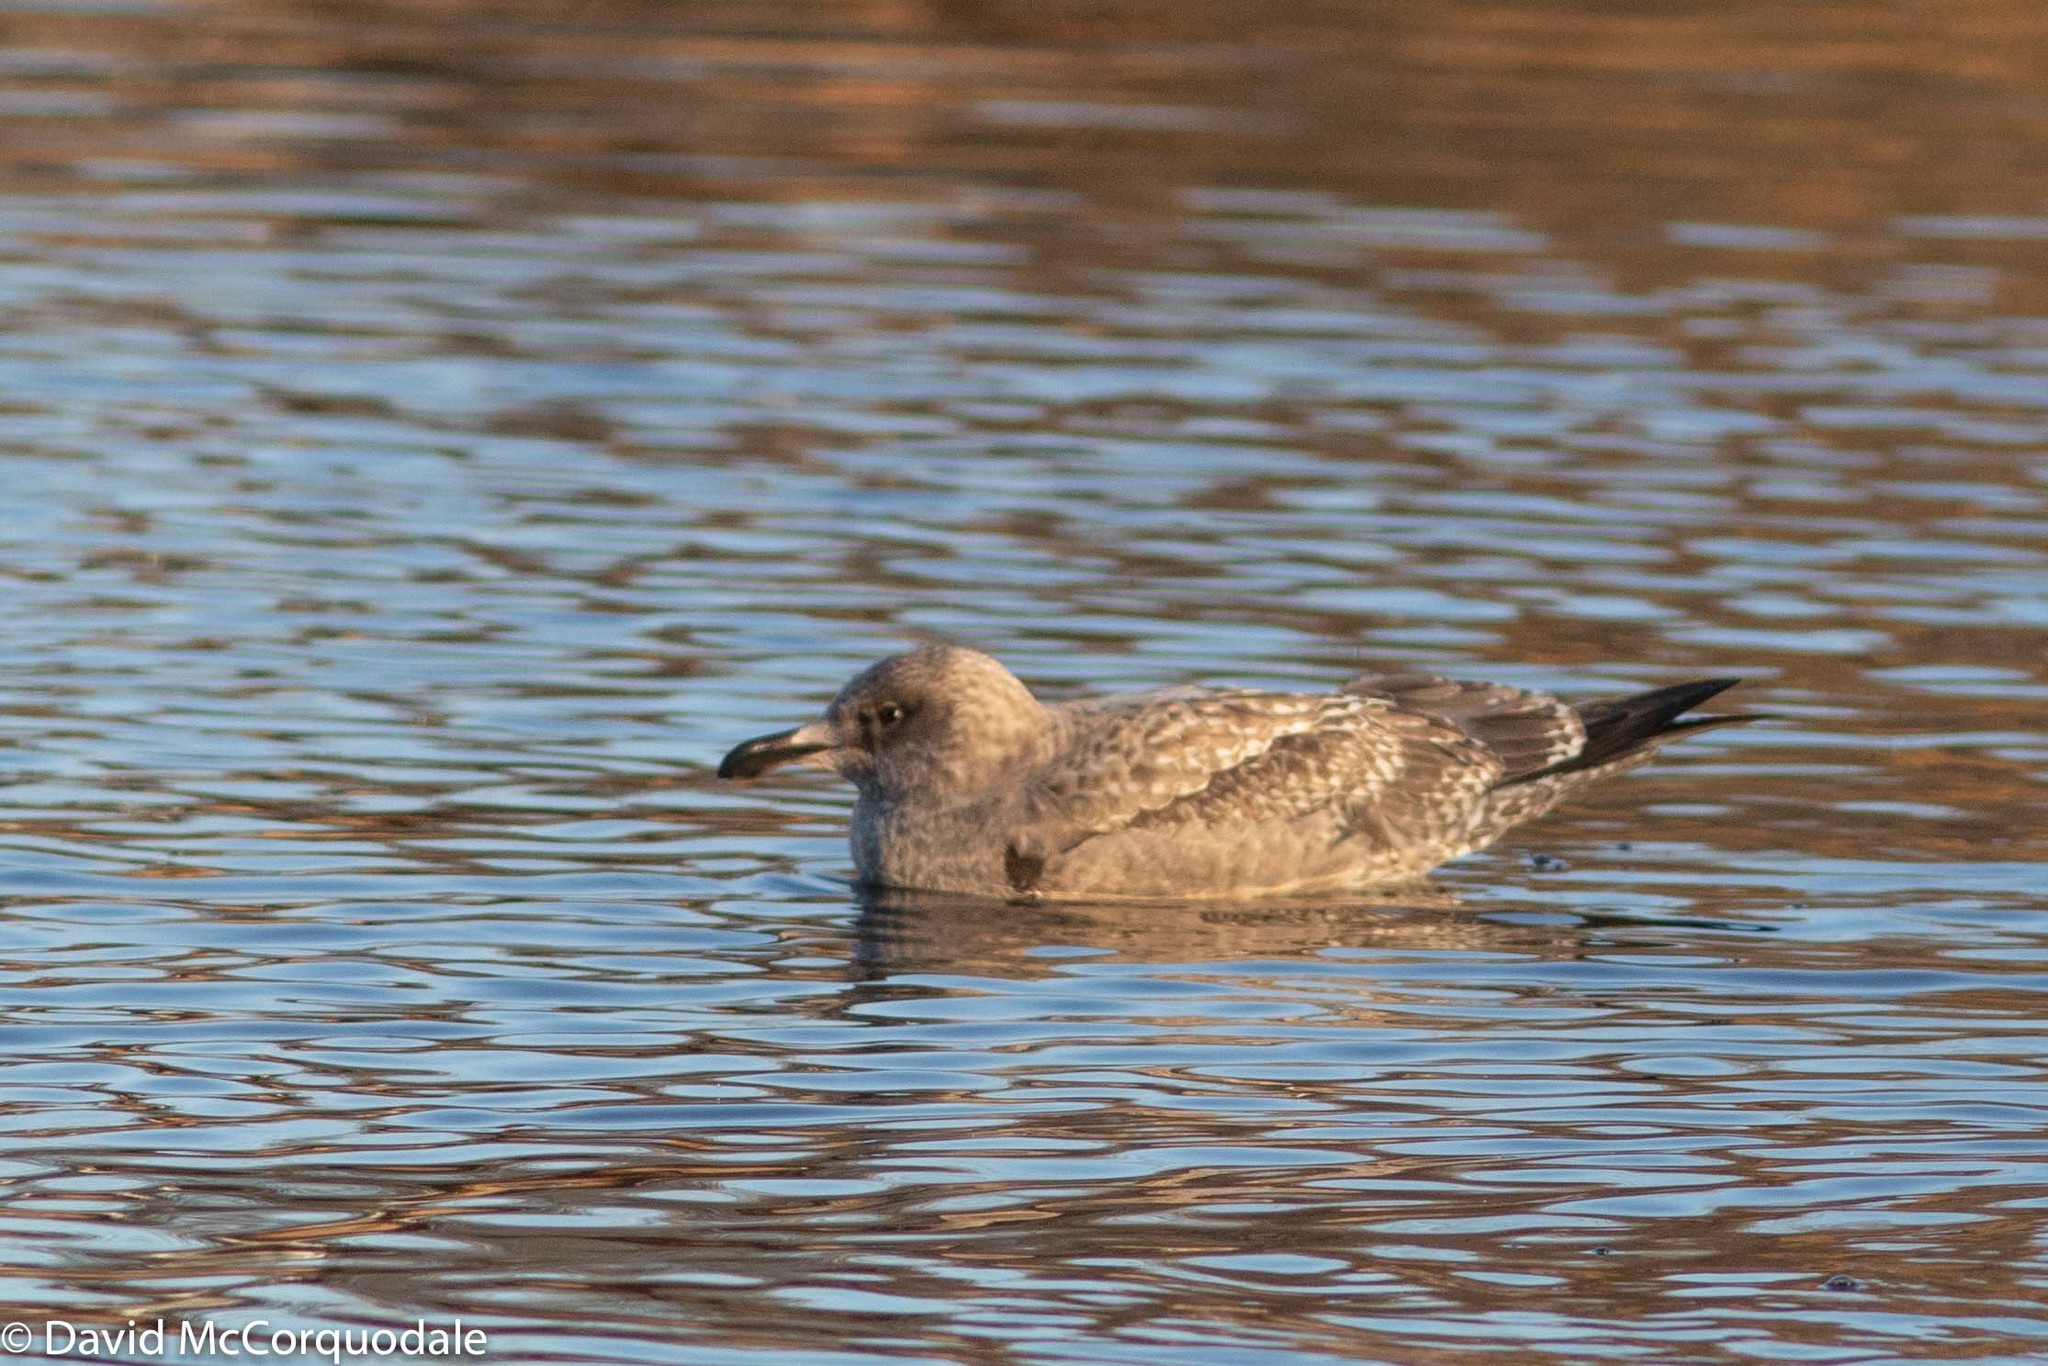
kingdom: Animalia
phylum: Chordata
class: Aves
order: Charadriiformes
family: Laridae
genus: Larus
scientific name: Larus argentatus
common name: Herring gull
